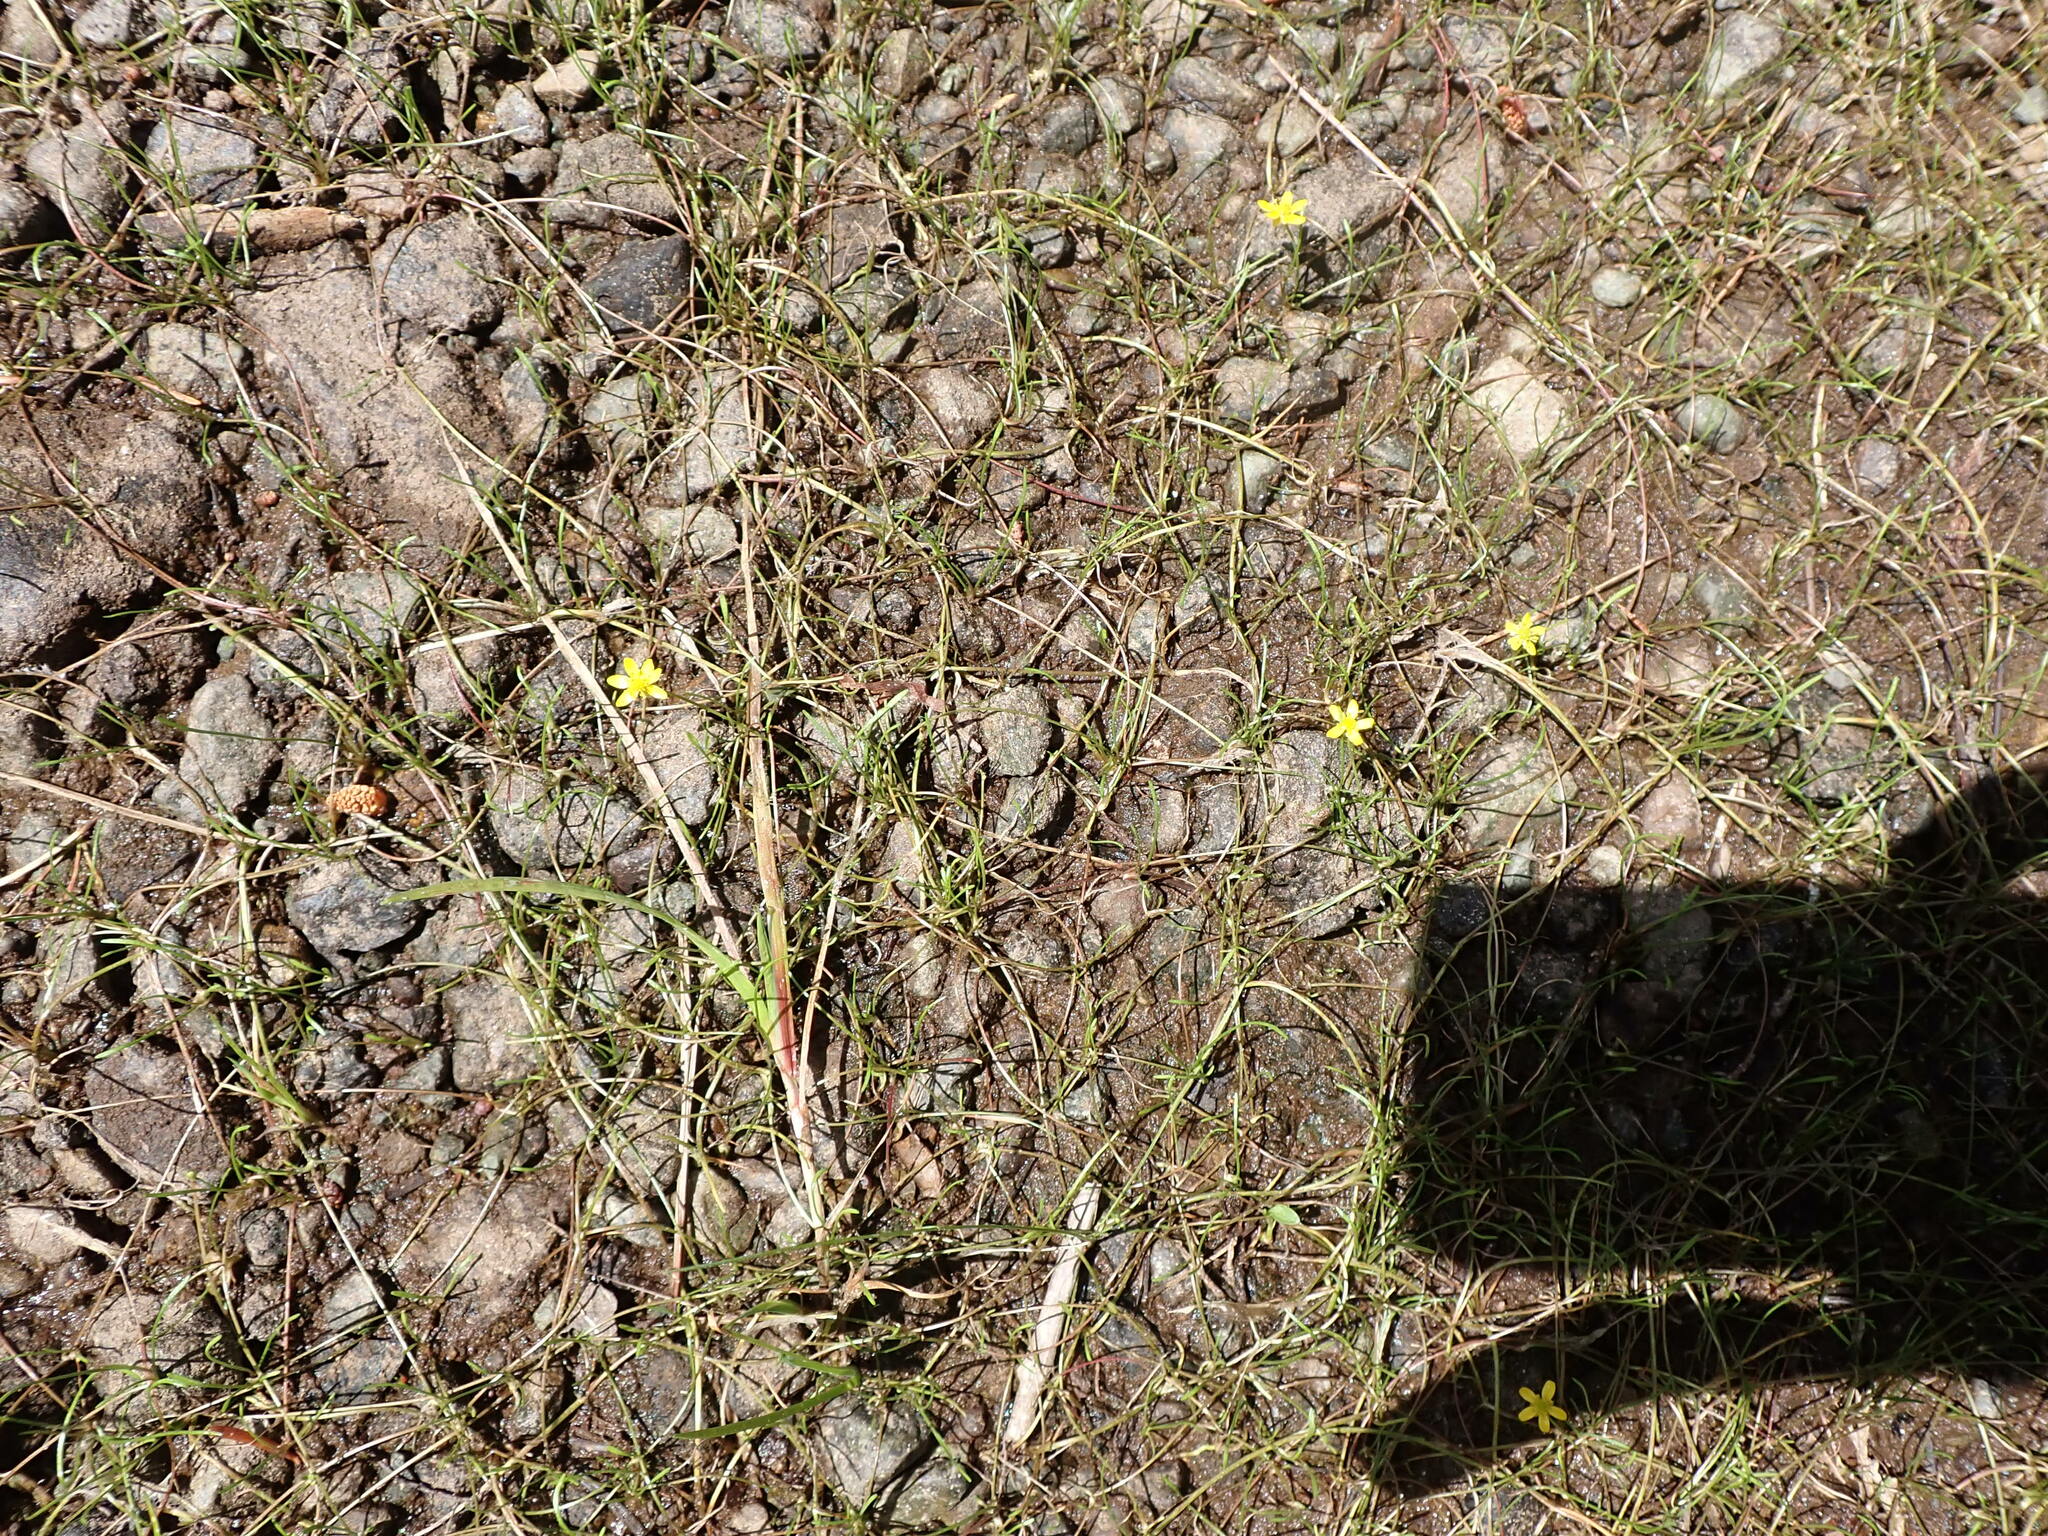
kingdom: Plantae
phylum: Tracheophyta
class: Magnoliopsida
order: Ranunculales
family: Ranunculaceae
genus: Ranunculus
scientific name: Ranunculus flammula
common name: Lesser spearwort
